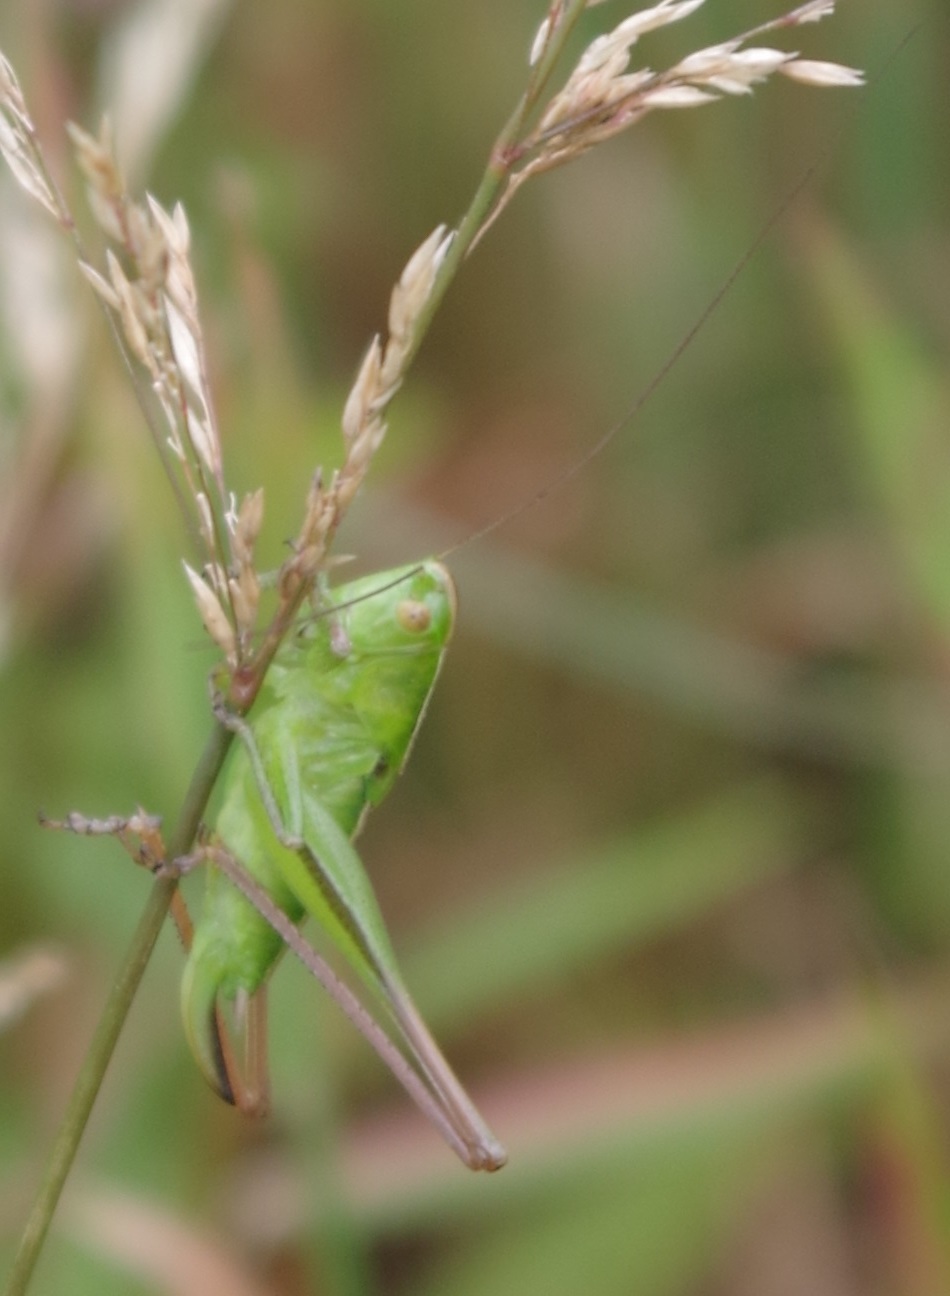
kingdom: Animalia
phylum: Arthropoda
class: Insecta
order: Orthoptera
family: Tettigoniidae
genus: Bicolorana
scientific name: Bicolorana bicolor
